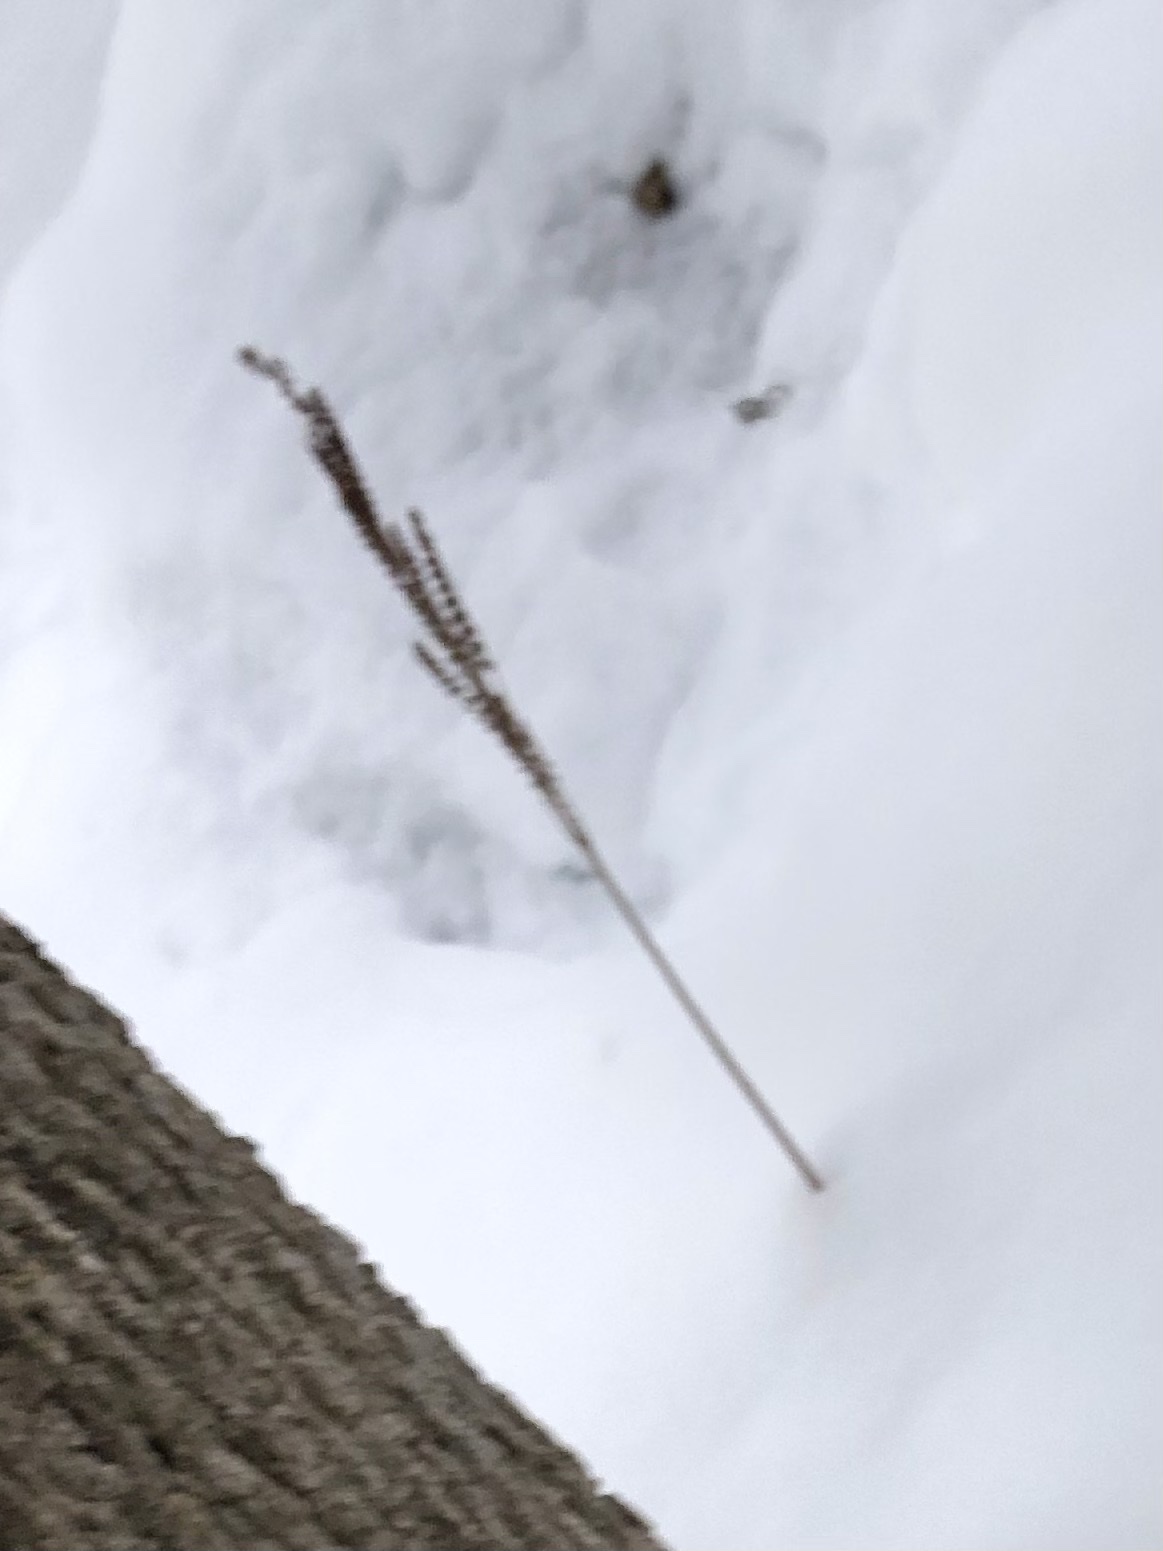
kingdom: Plantae
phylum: Tracheophyta
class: Polypodiopsida
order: Polypodiales
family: Onocleaceae
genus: Onoclea
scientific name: Onoclea sensibilis
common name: Sensitive fern
